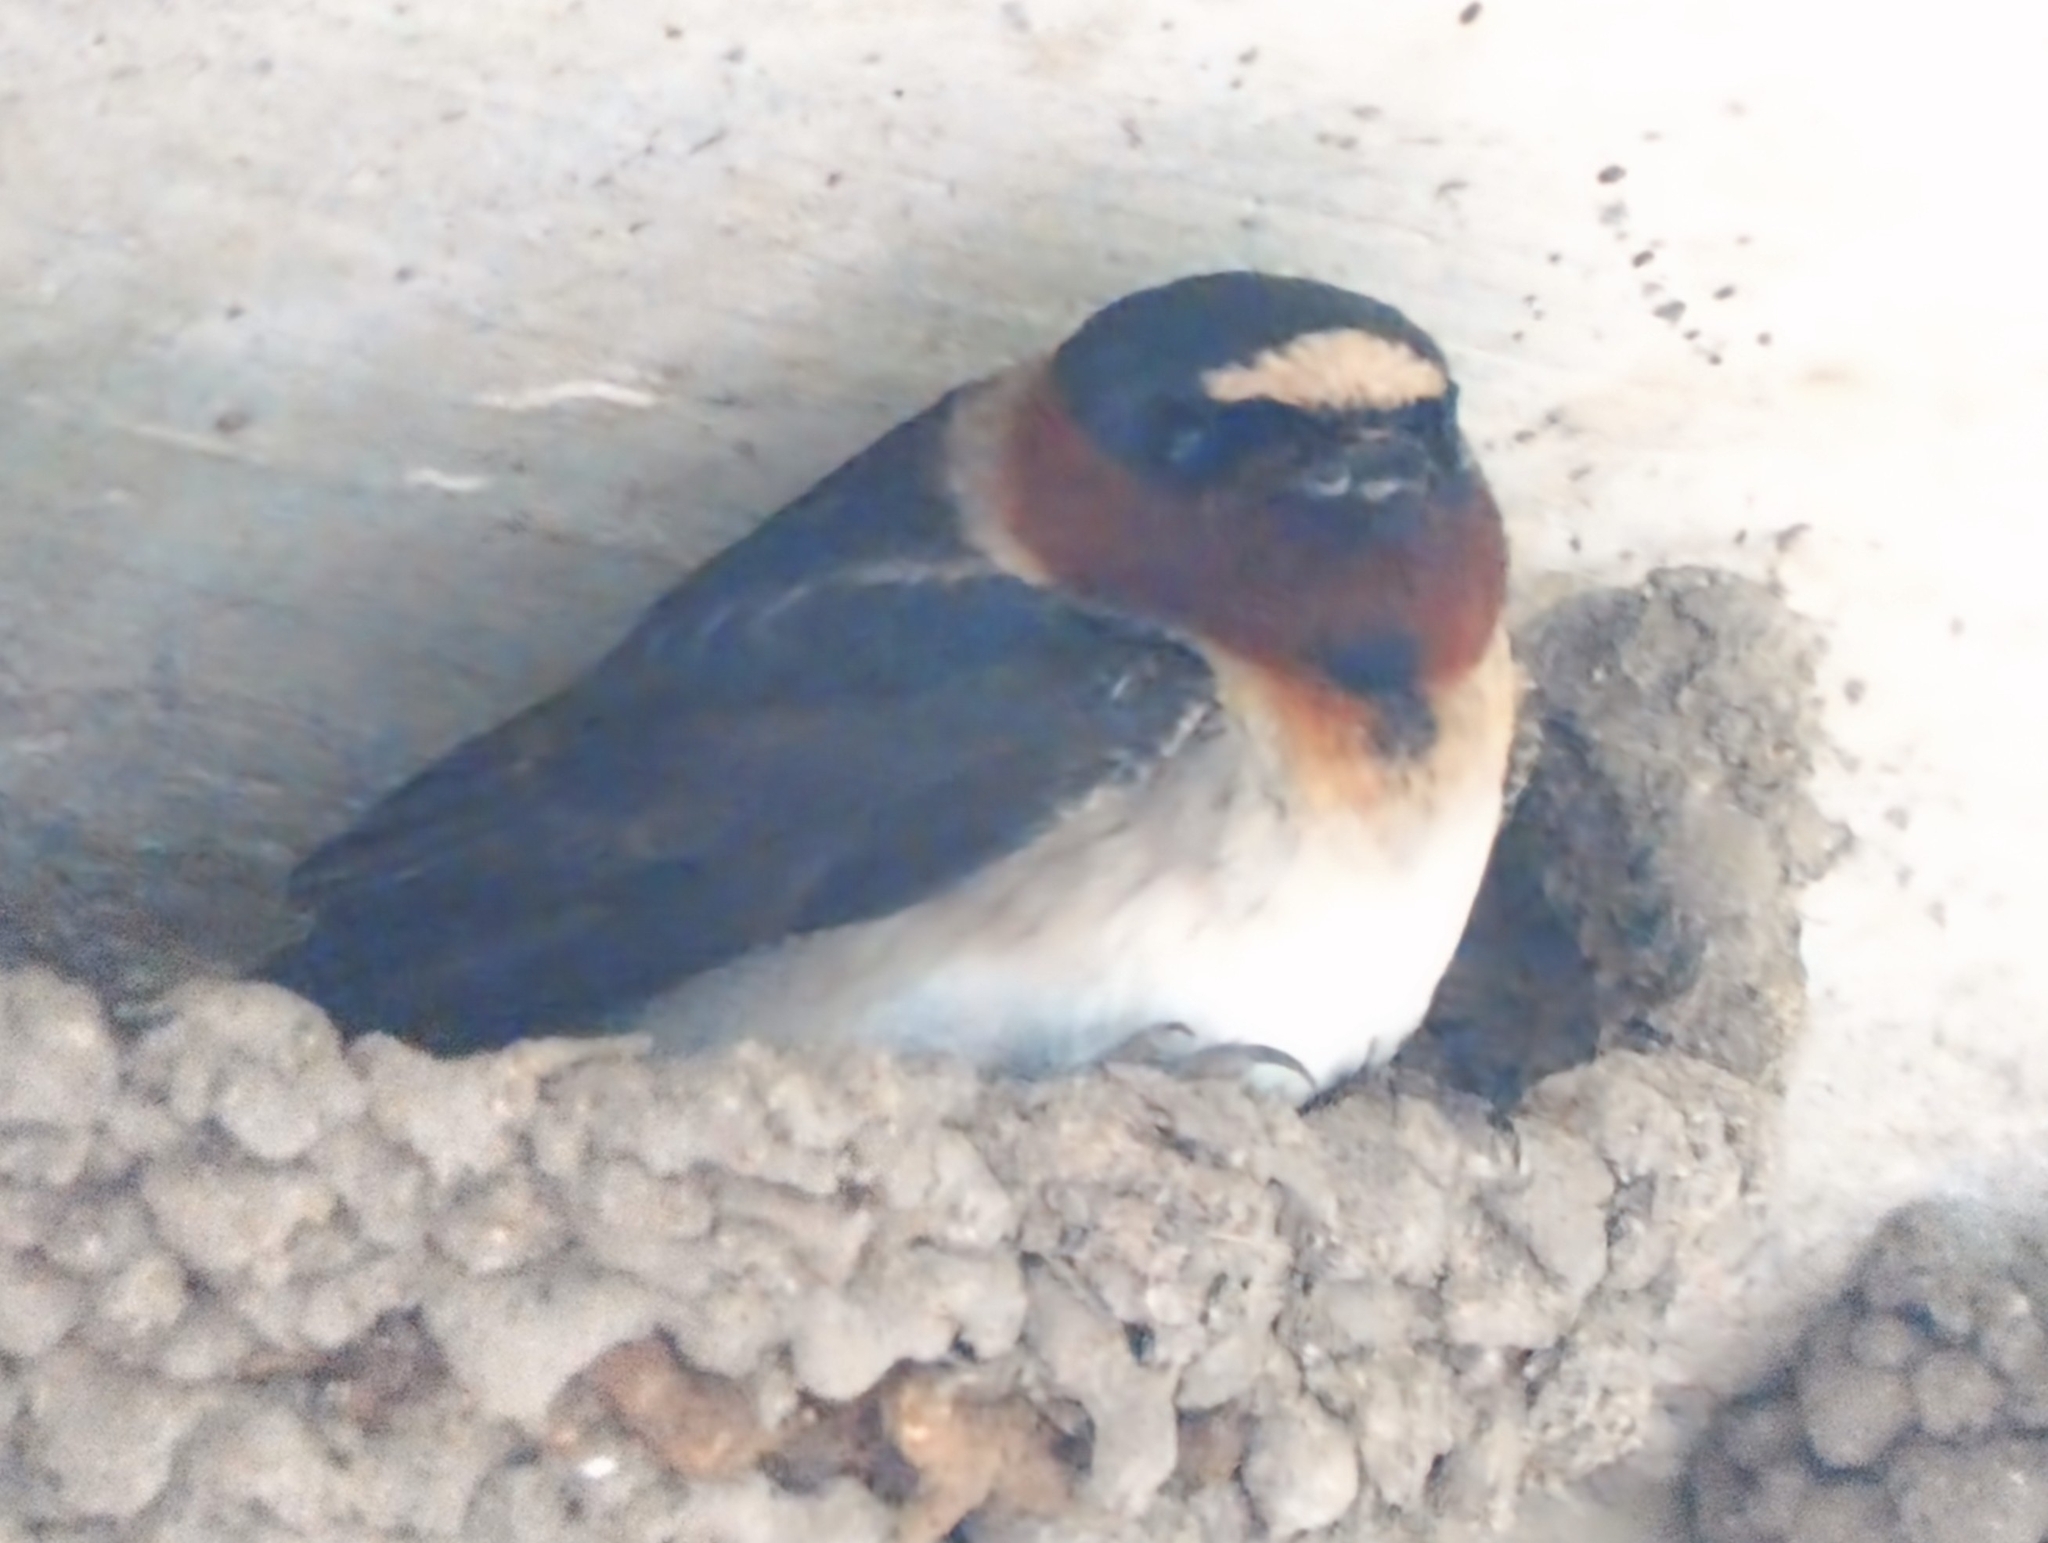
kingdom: Animalia
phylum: Chordata
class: Aves
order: Passeriformes
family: Hirundinidae
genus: Petrochelidon
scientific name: Petrochelidon pyrrhonota
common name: American cliff swallow
